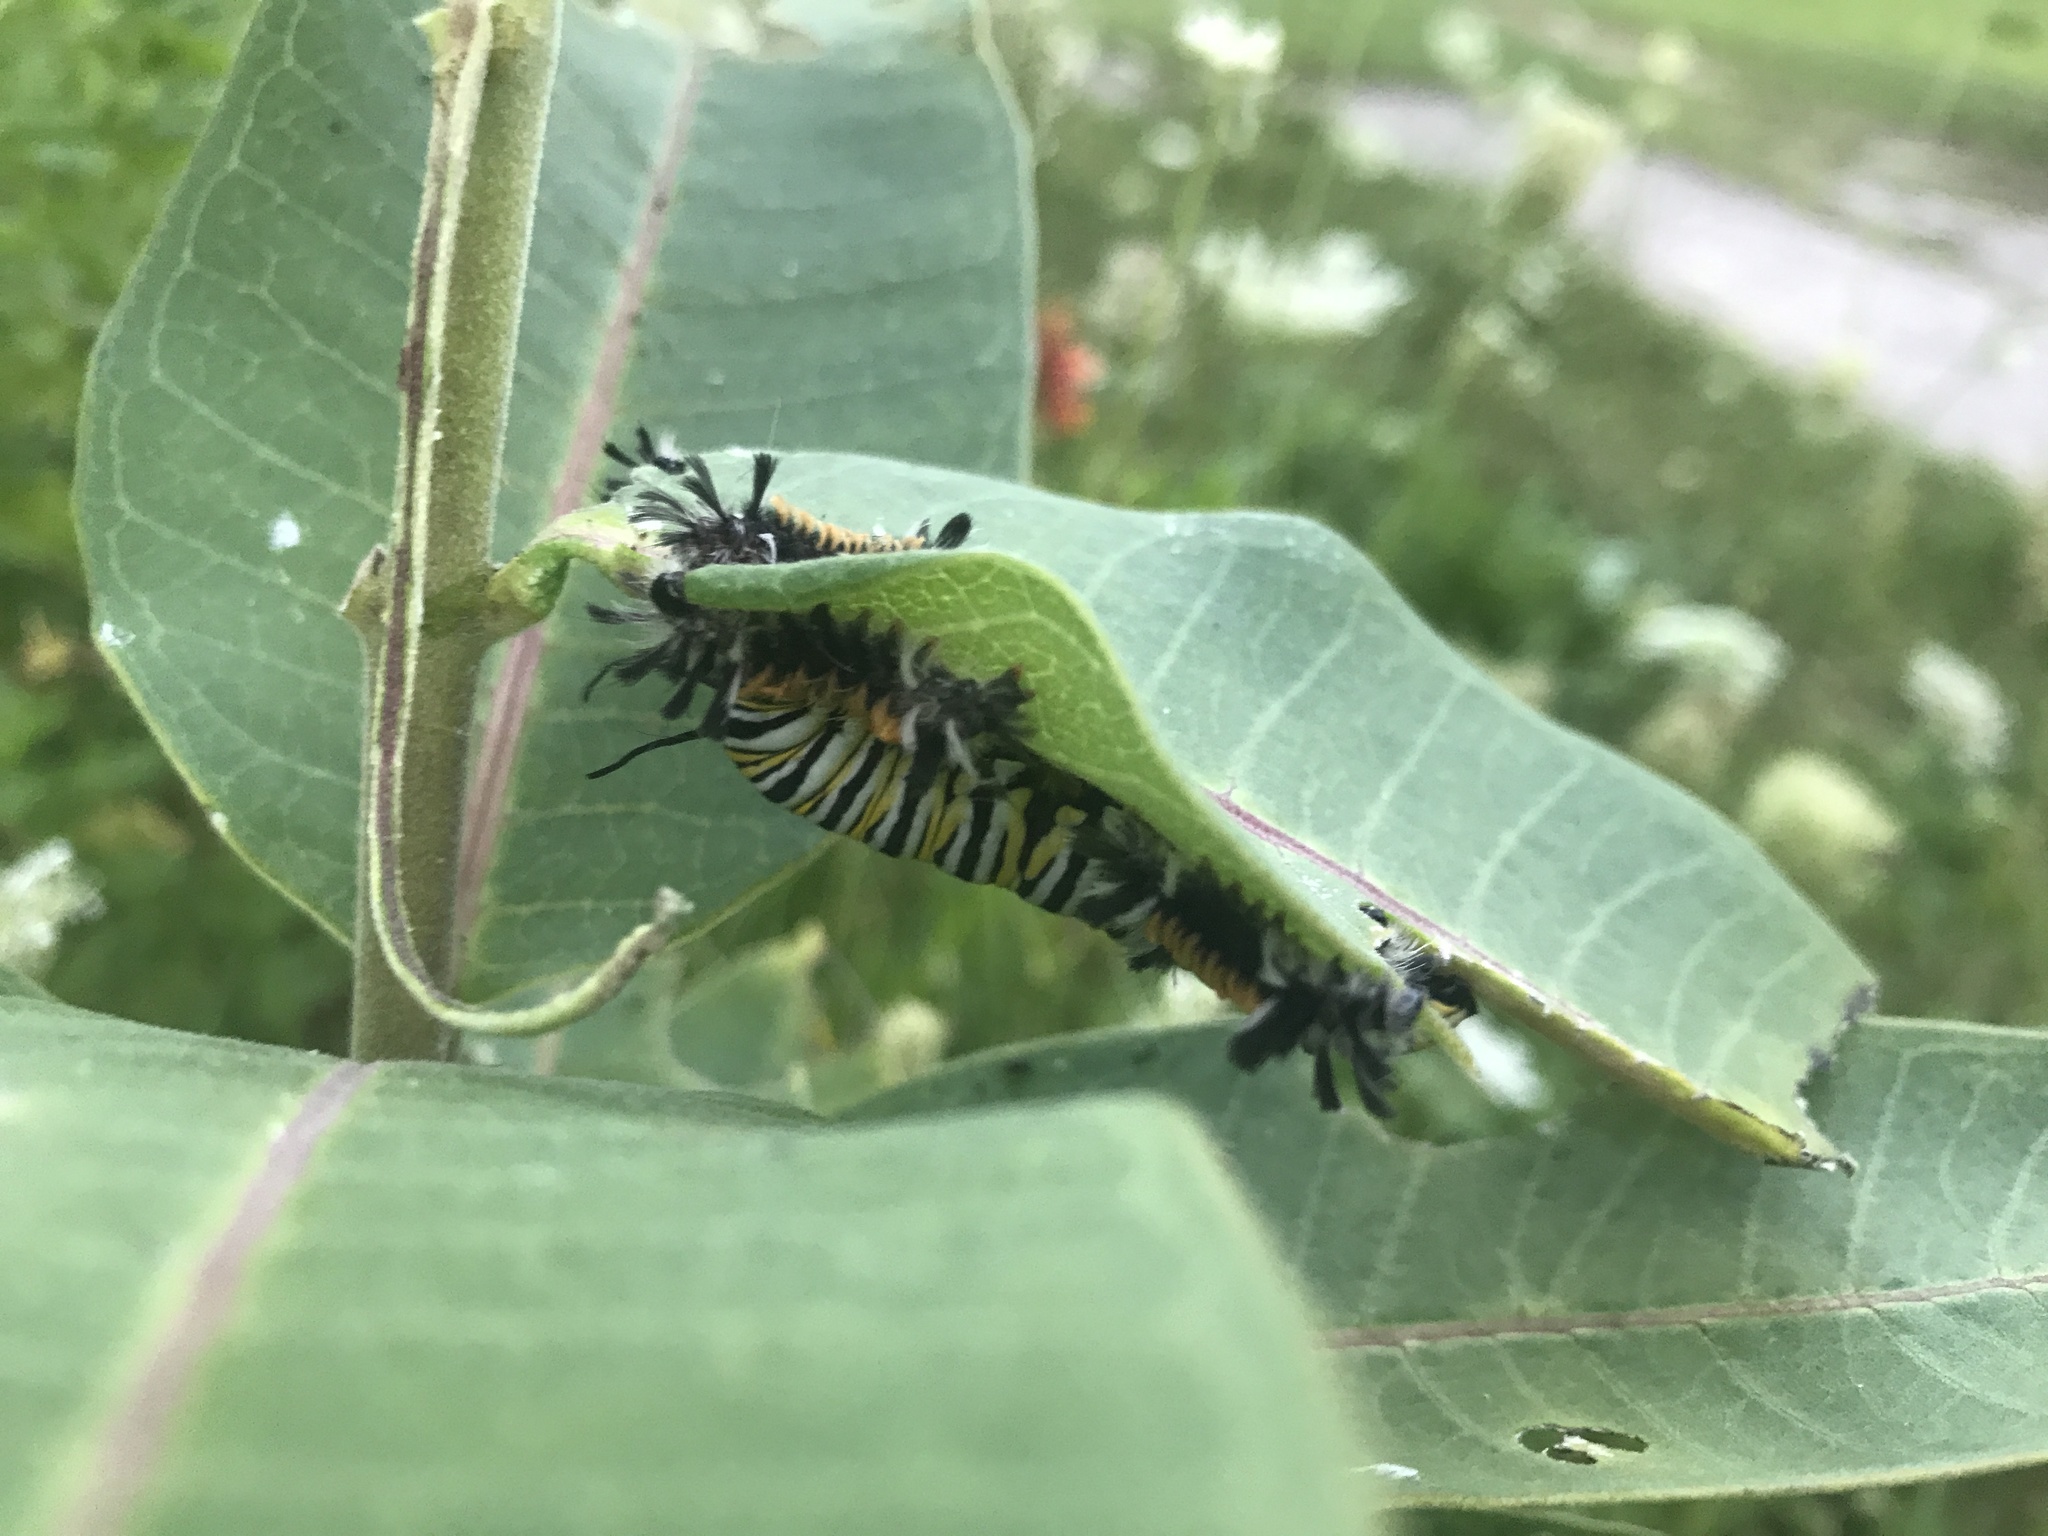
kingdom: Animalia
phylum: Arthropoda
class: Insecta
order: Lepidoptera
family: Nymphalidae
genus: Danaus
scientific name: Danaus plexippus
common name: Monarch
